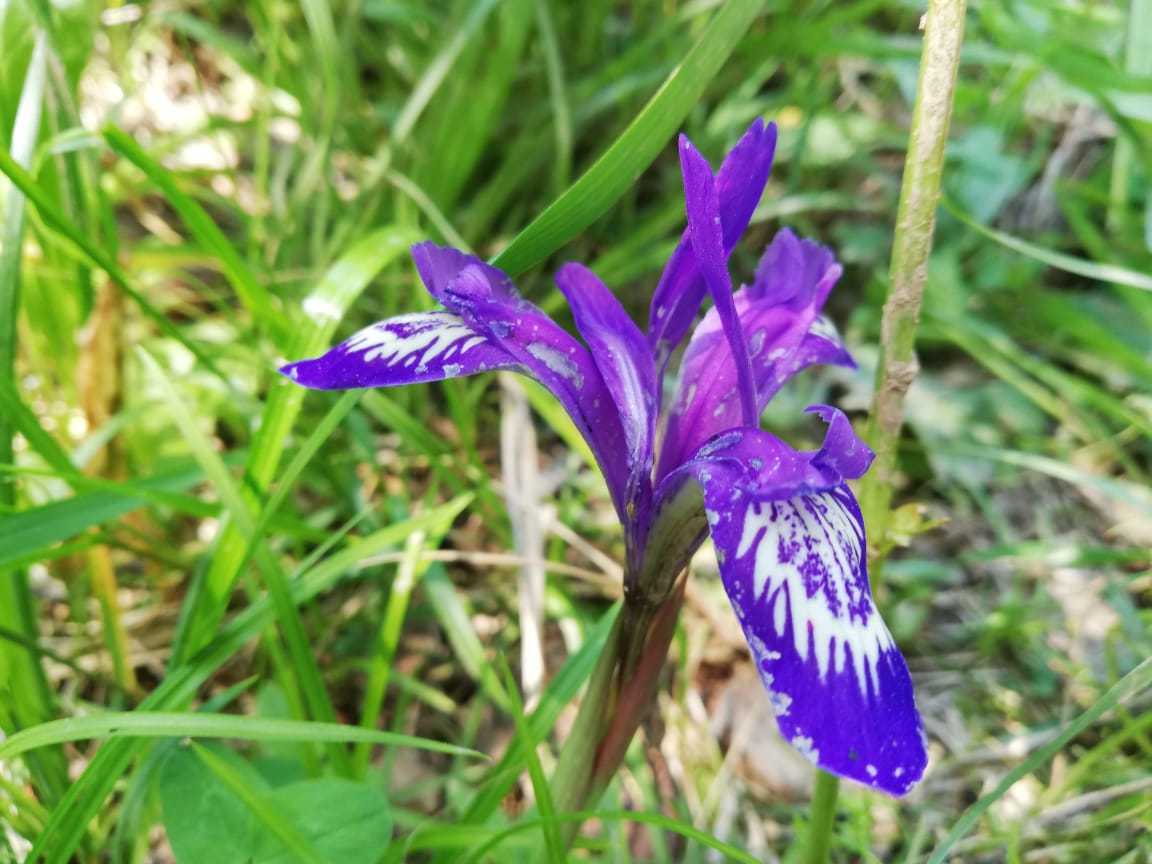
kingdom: Plantae
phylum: Tracheophyta
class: Liliopsida
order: Asparagales
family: Iridaceae
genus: Iris
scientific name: Iris ruthenica
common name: Purple-bract iris
